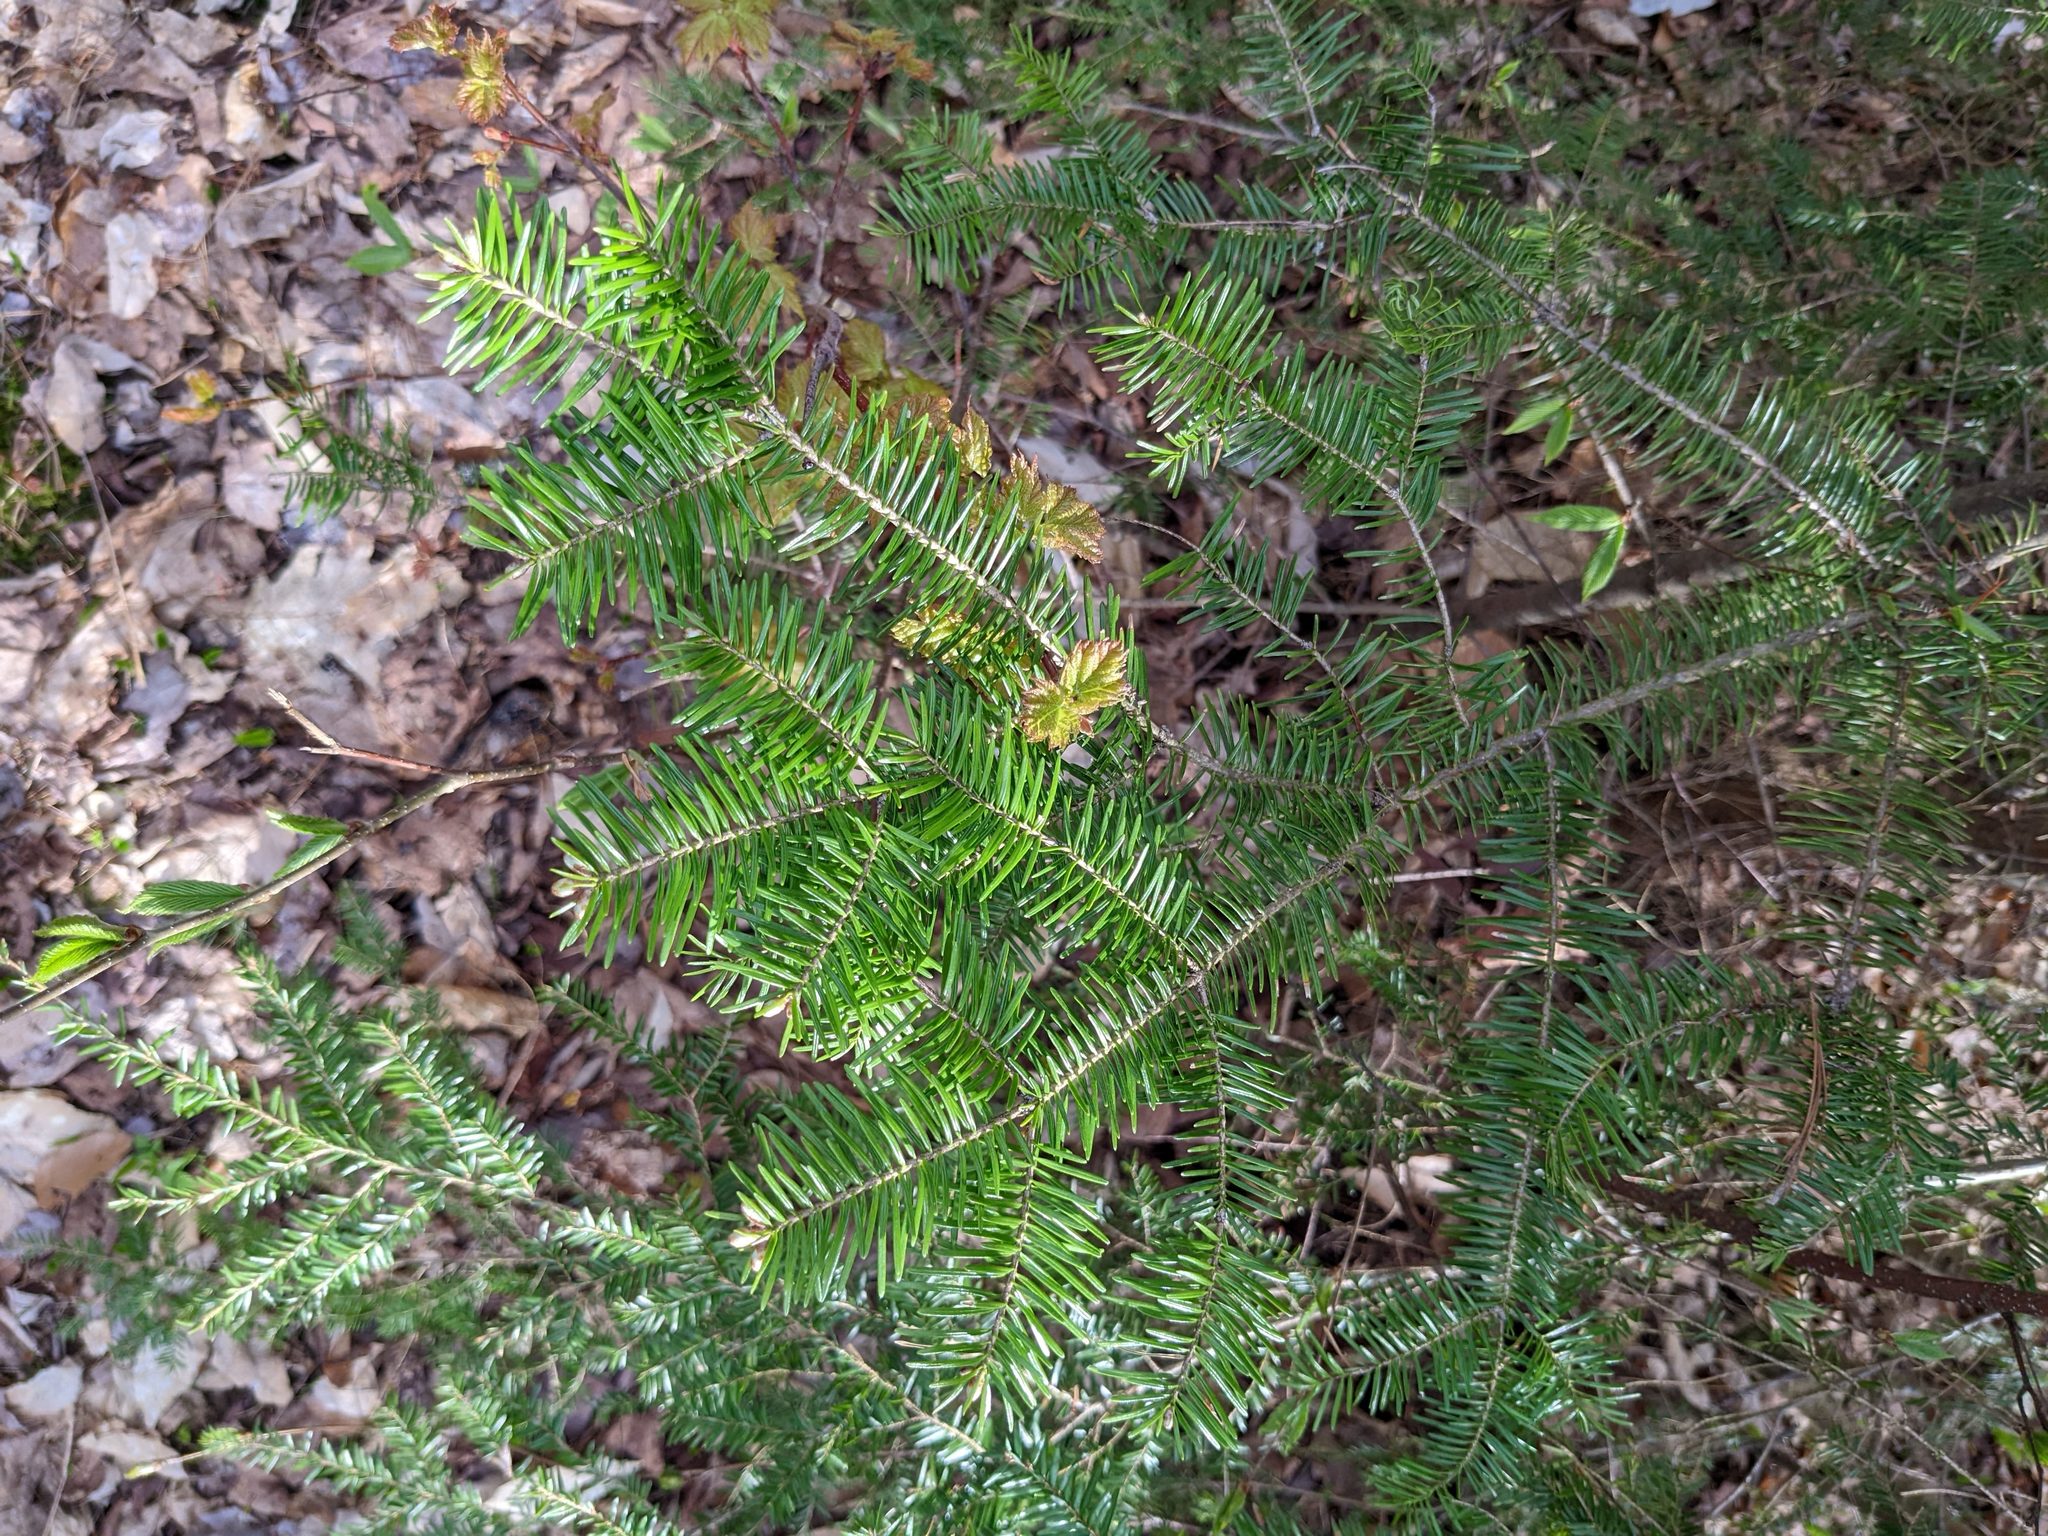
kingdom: Plantae
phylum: Tracheophyta
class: Pinopsida
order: Pinales
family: Pinaceae
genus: Abies
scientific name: Abies balsamea
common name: Balsam fir
